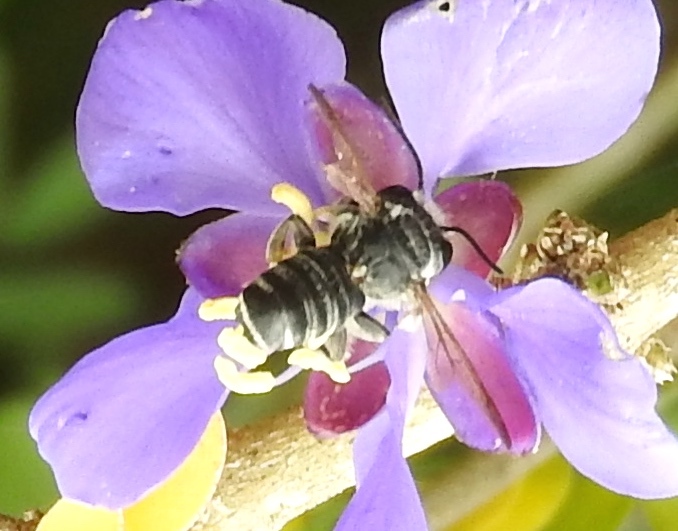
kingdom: Animalia
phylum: Arthropoda
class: Insecta
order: Hymenoptera
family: Megachilidae
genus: Megachile
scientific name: Megachile
